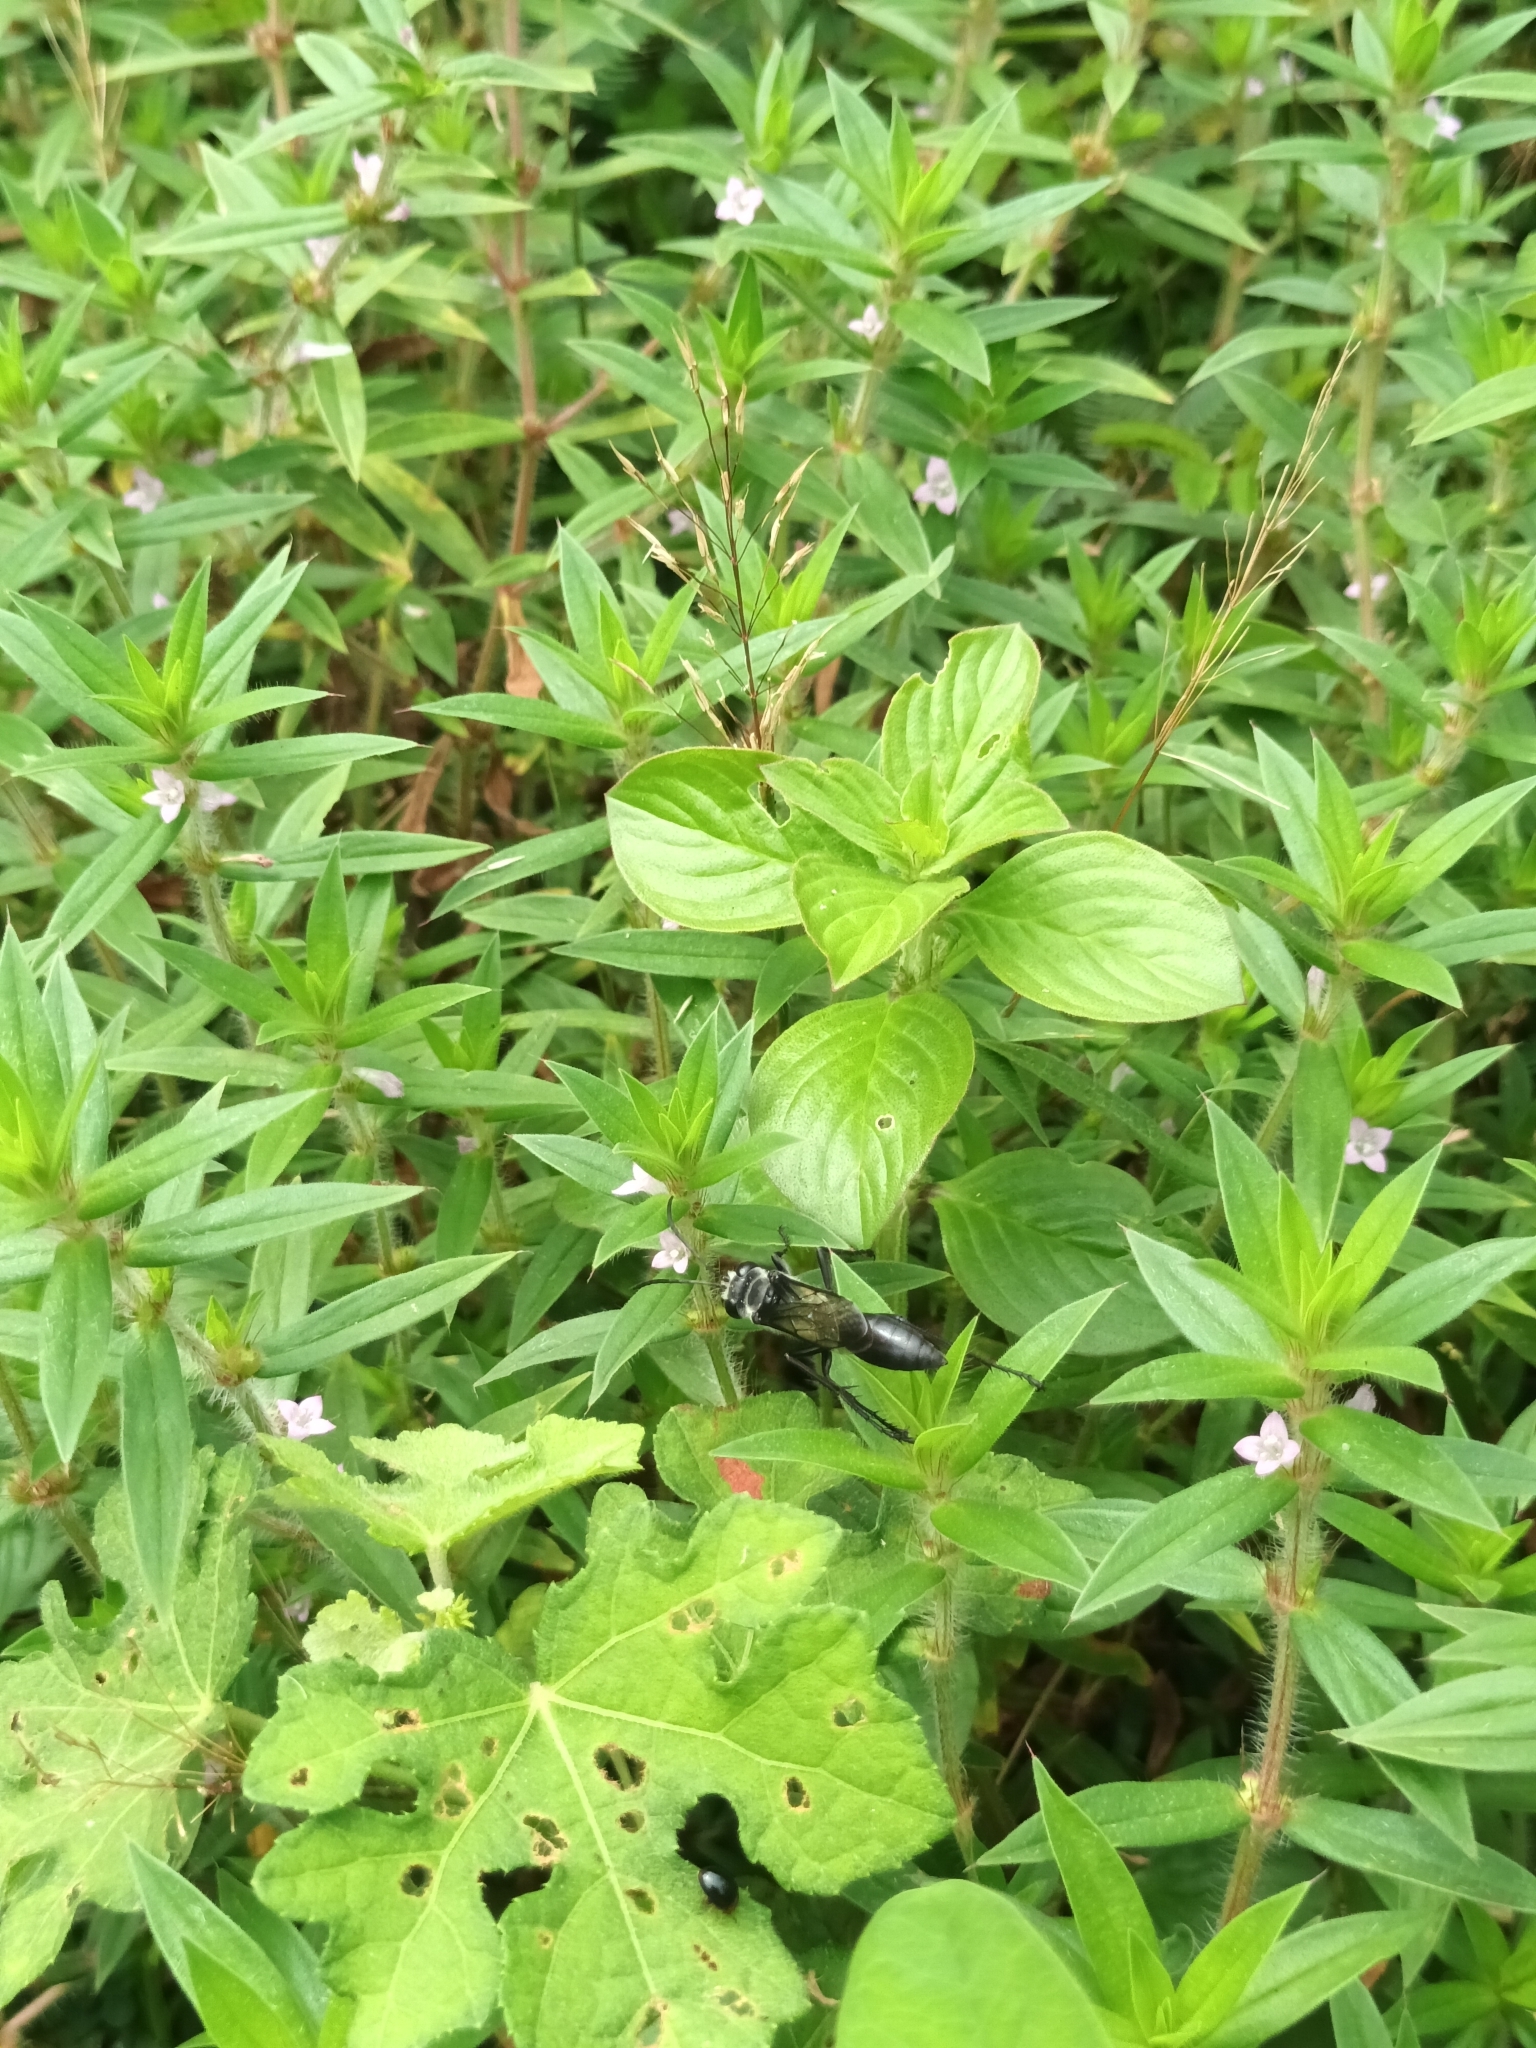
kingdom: Animalia
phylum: Arthropoda
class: Insecta
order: Hymenoptera
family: Sphecidae
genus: Sphex
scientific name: Sphex argentatus
